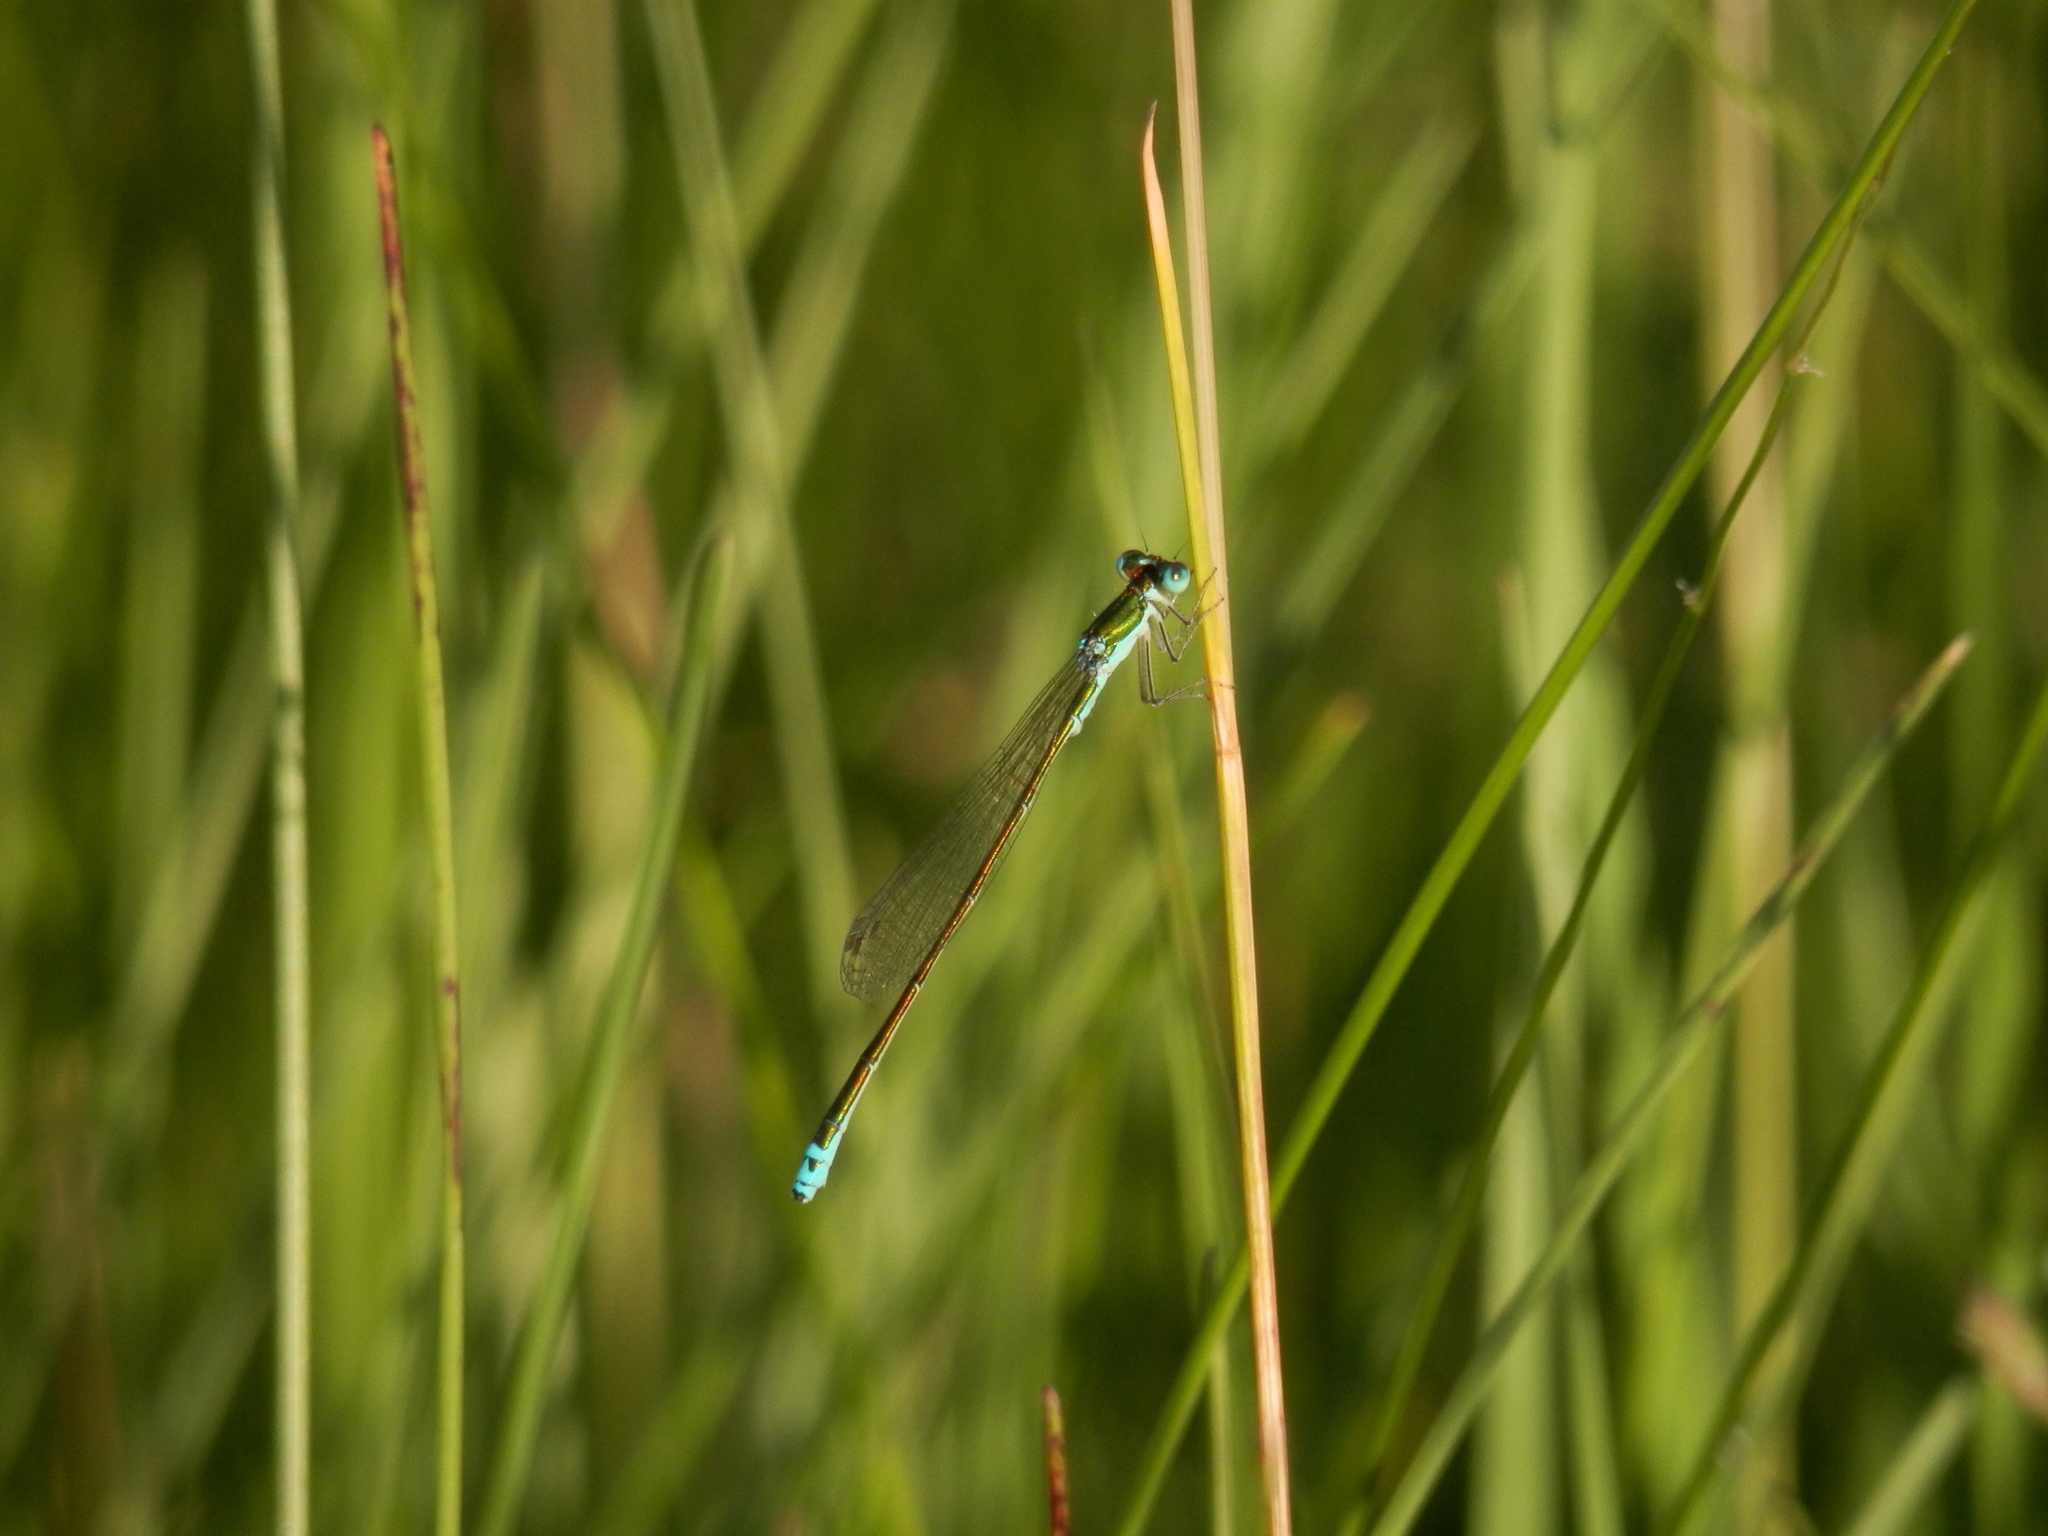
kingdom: Animalia
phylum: Arthropoda
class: Insecta
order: Odonata
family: Coenagrionidae
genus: Nehalennia
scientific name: Nehalennia irene
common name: Sedge sprite
